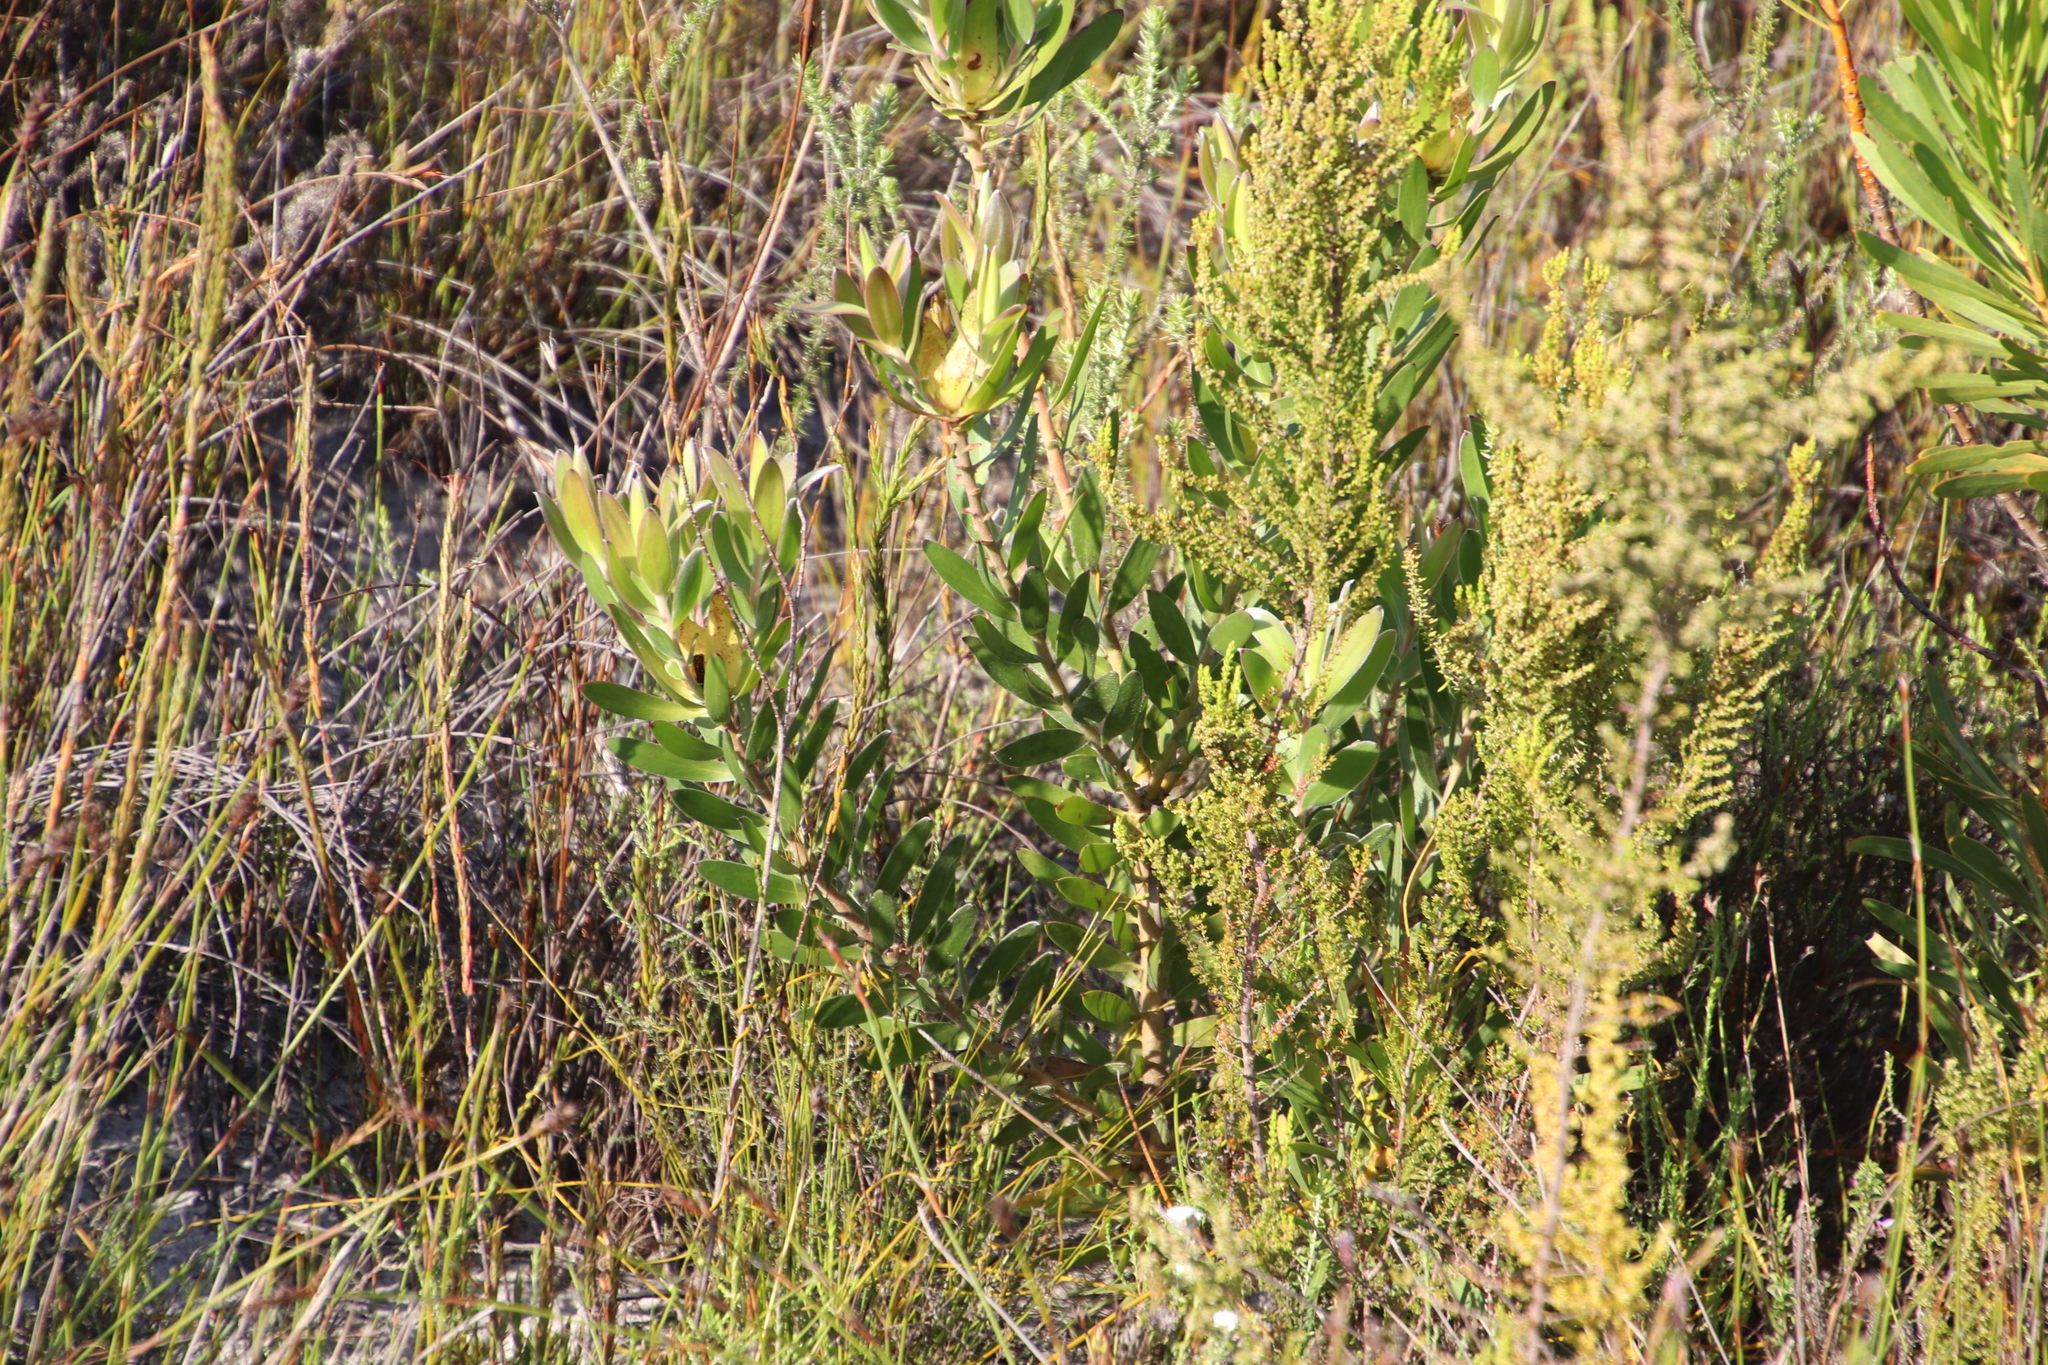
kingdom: Plantae
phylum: Tracheophyta
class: Magnoliopsida
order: Proteales
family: Proteaceae
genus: Leucadendron
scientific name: Leucadendron laureolum
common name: Golden sunshinebush
